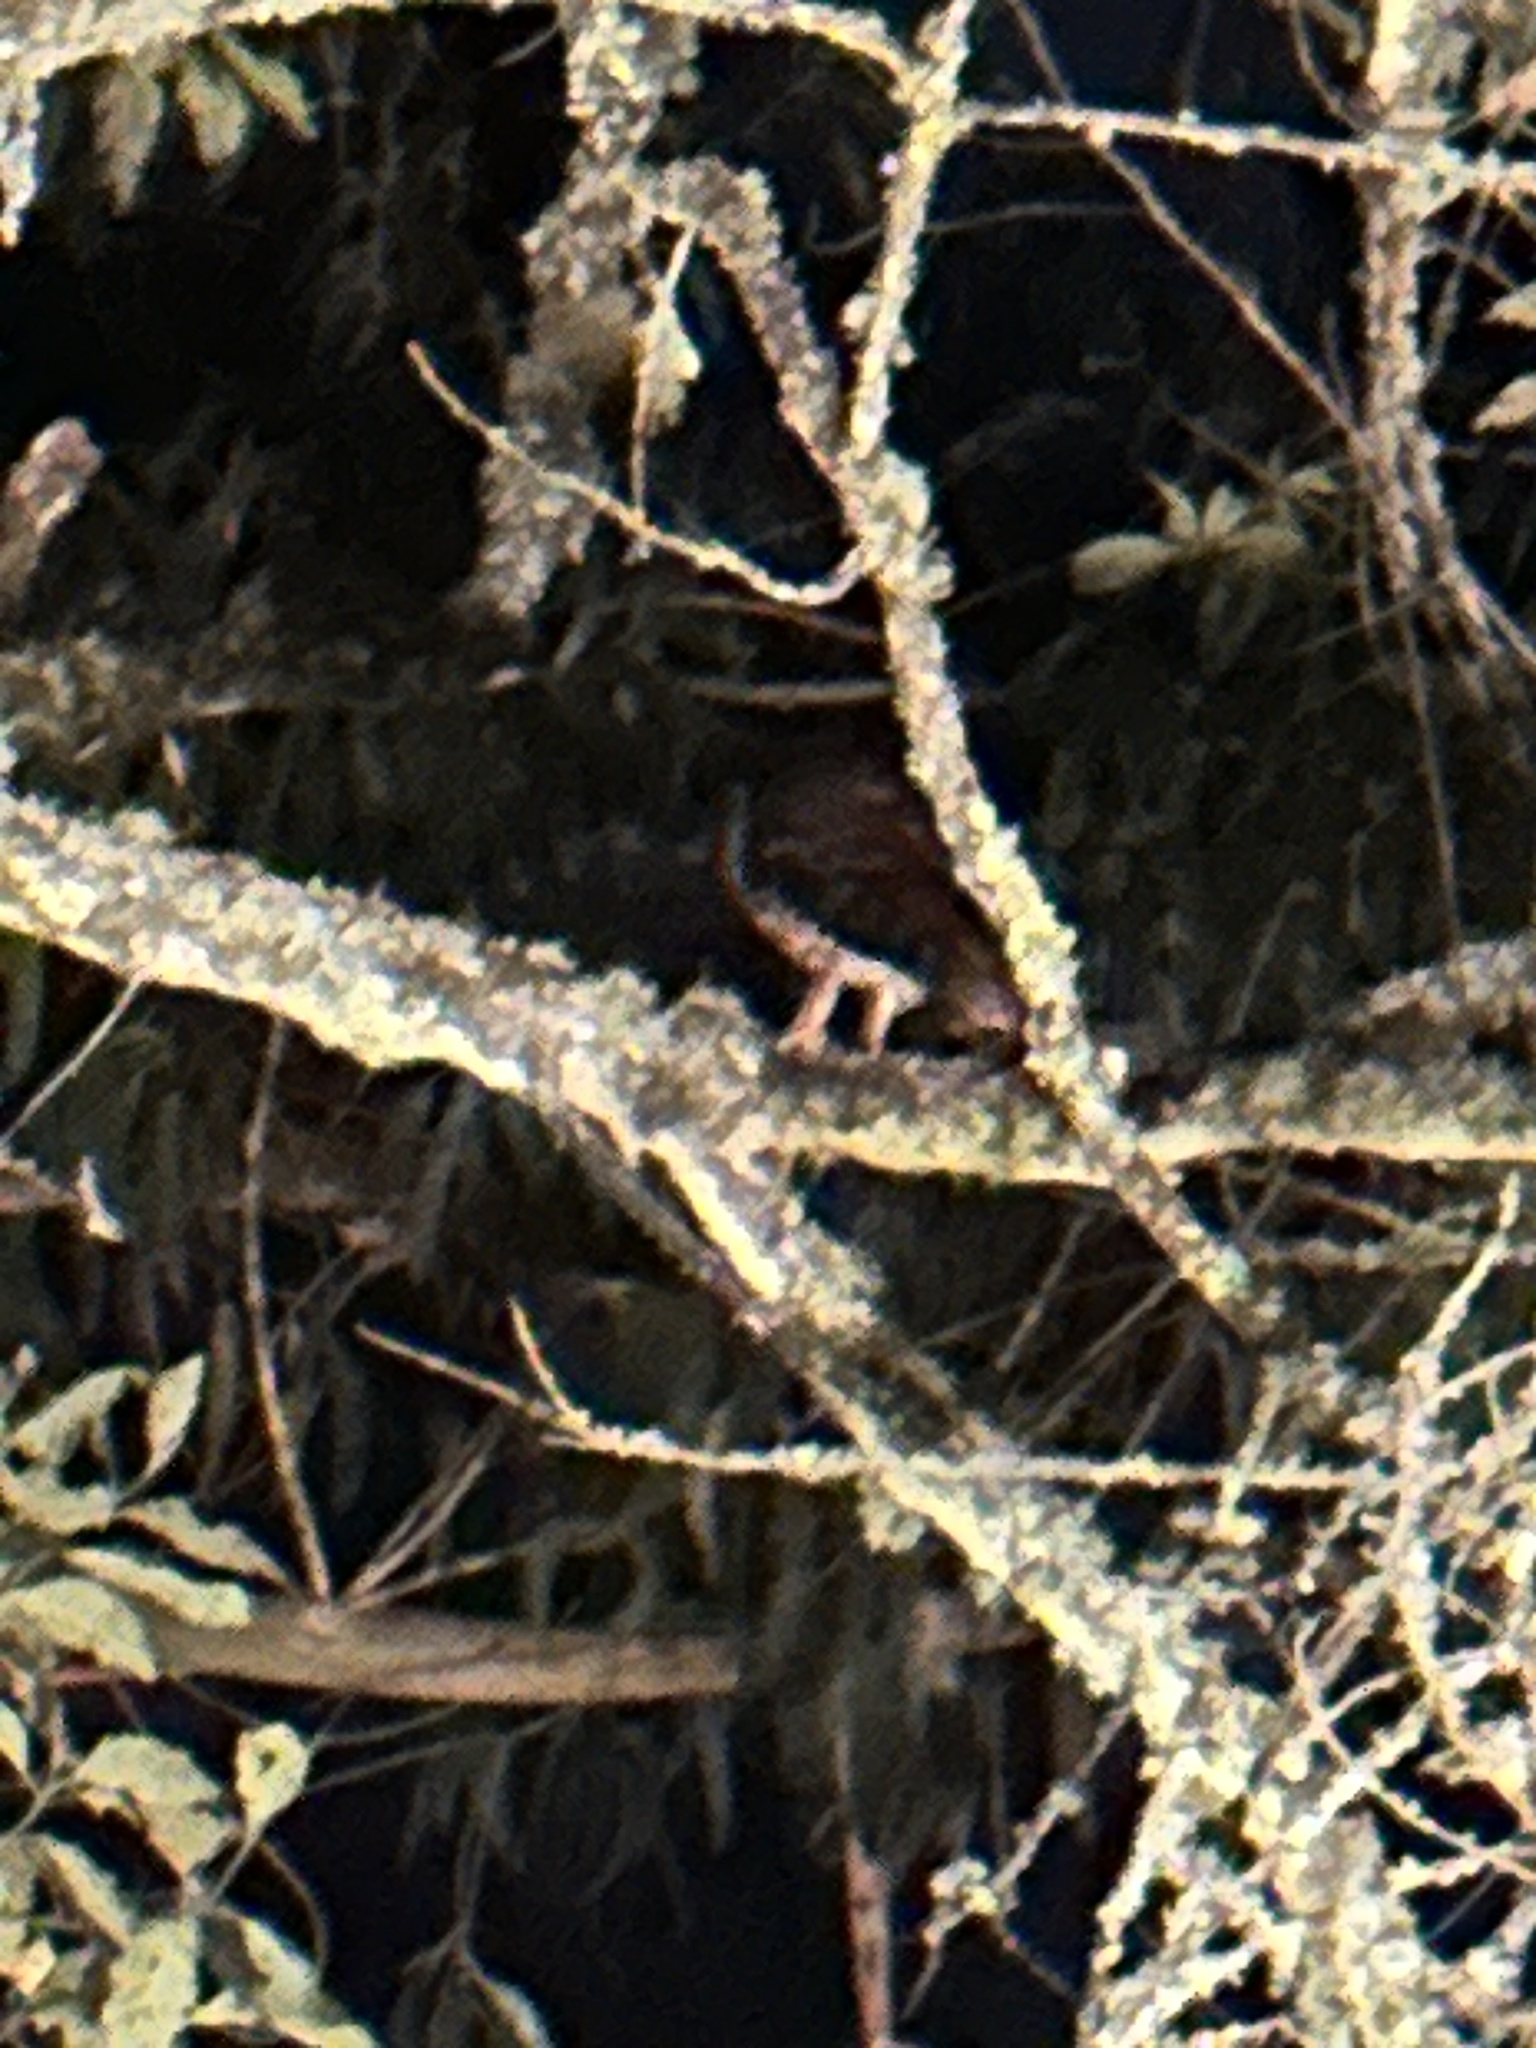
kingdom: Animalia
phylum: Chordata
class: Aves
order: Strigiformes
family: Strigidae
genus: Strix
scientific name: Strix albitarsis
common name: Rufous-banded owl
